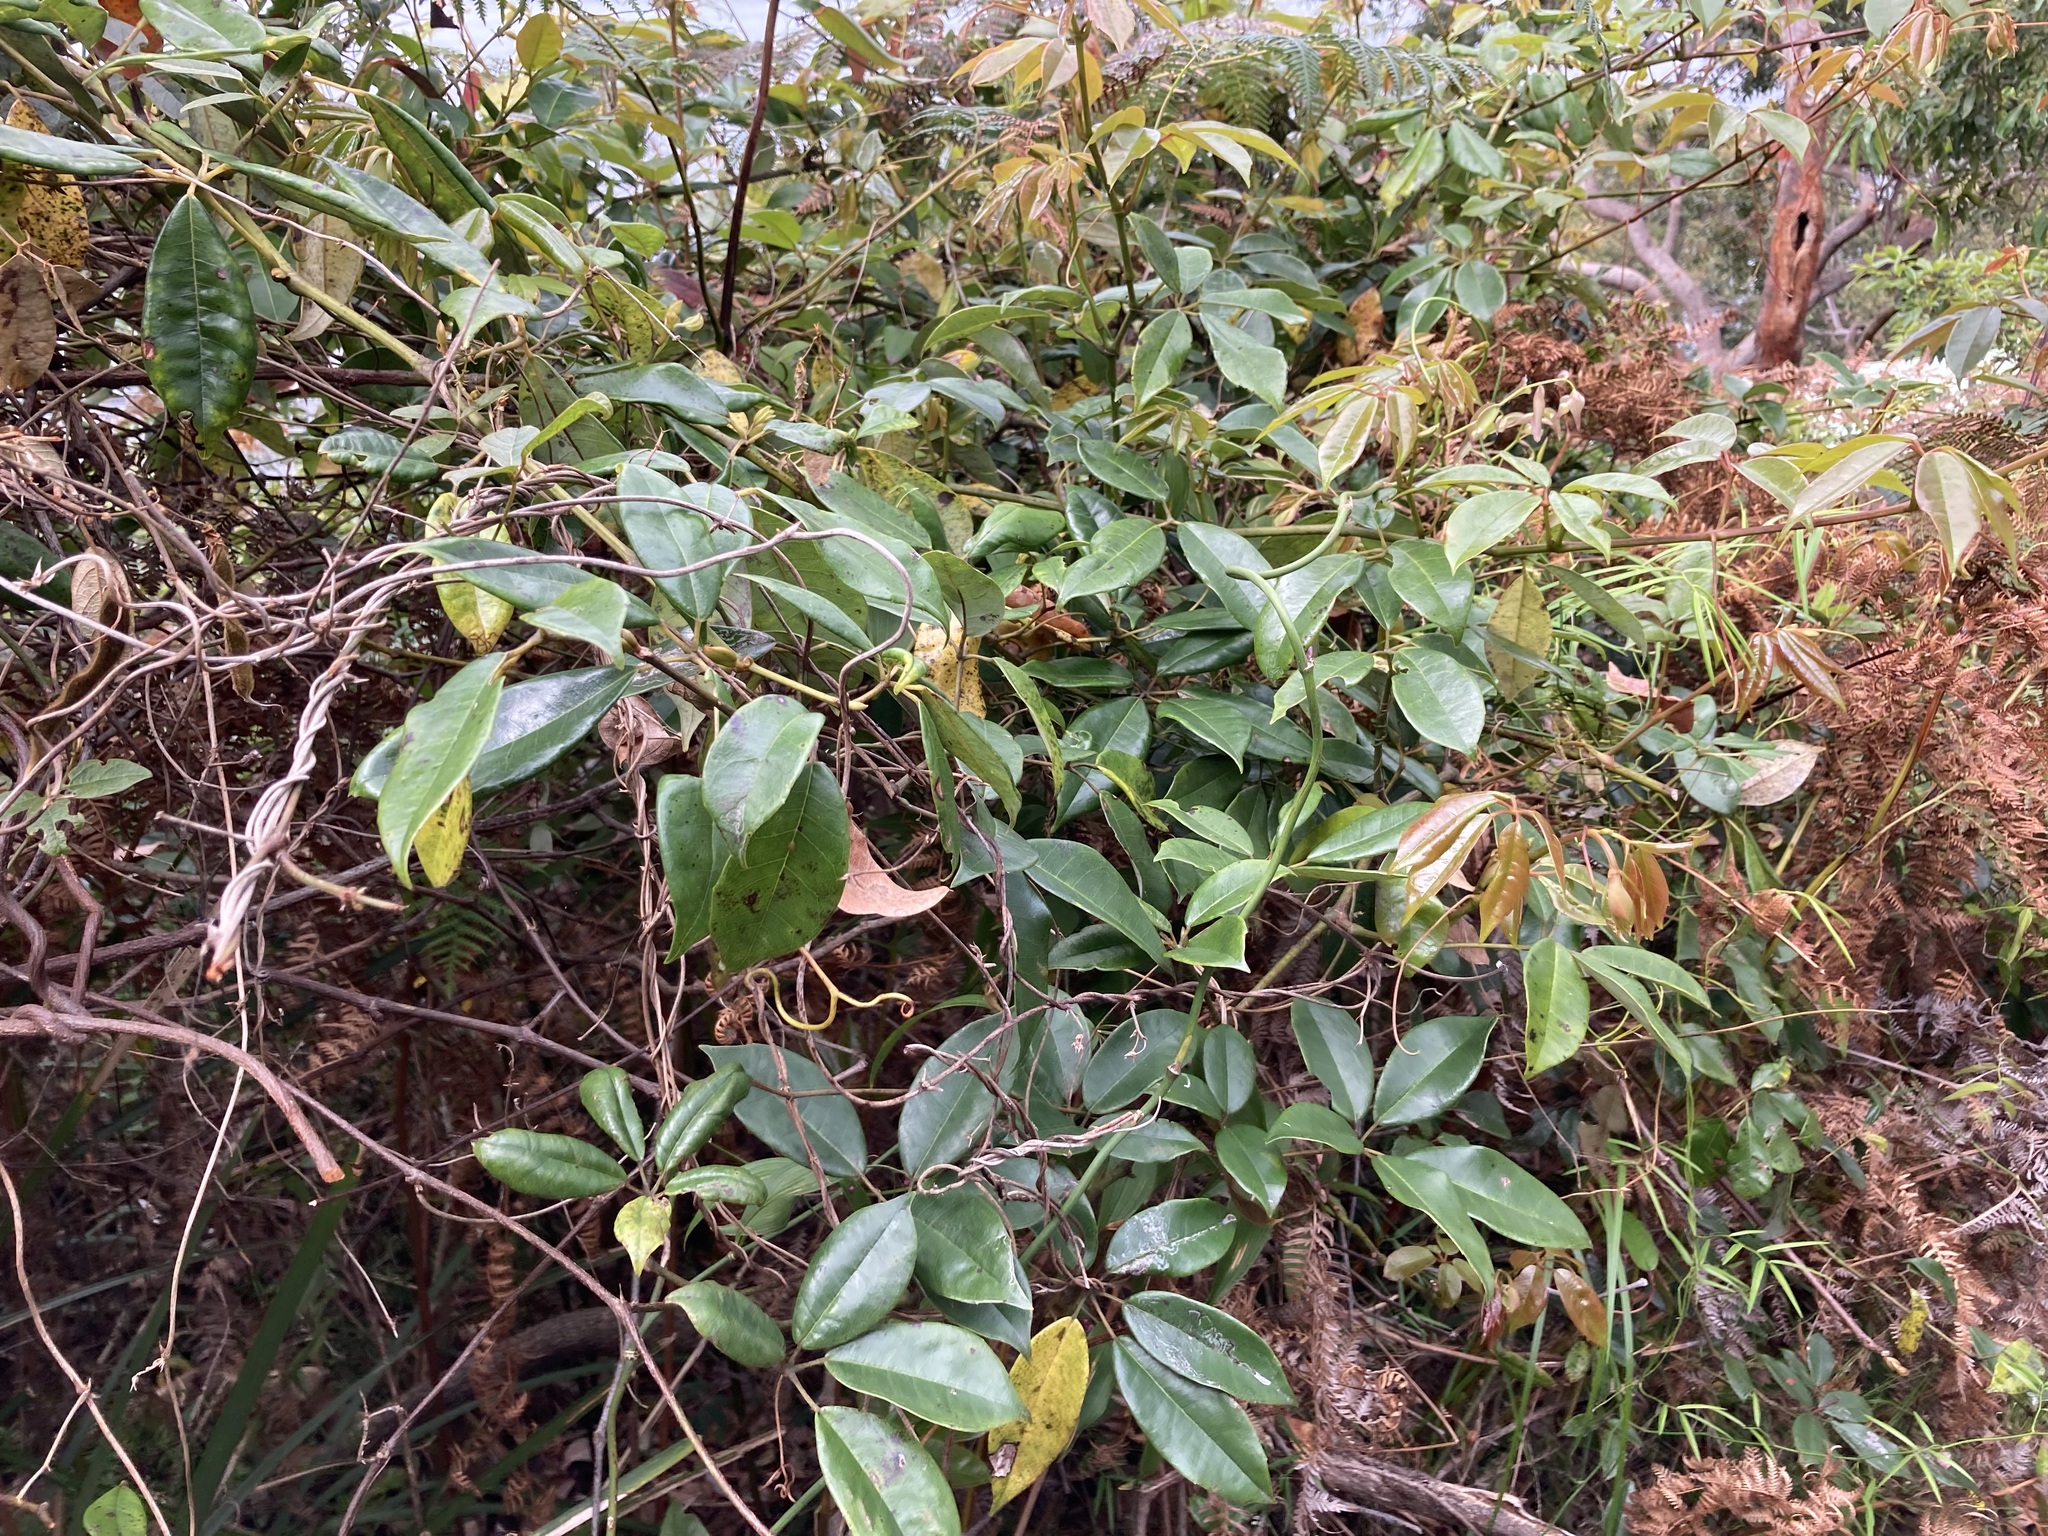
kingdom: Plantae
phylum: Tracheophyta
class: Magnoliopsida
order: Vitales
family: Vitaceae
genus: Nothocissus
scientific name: Nothocissus hypoglauca
